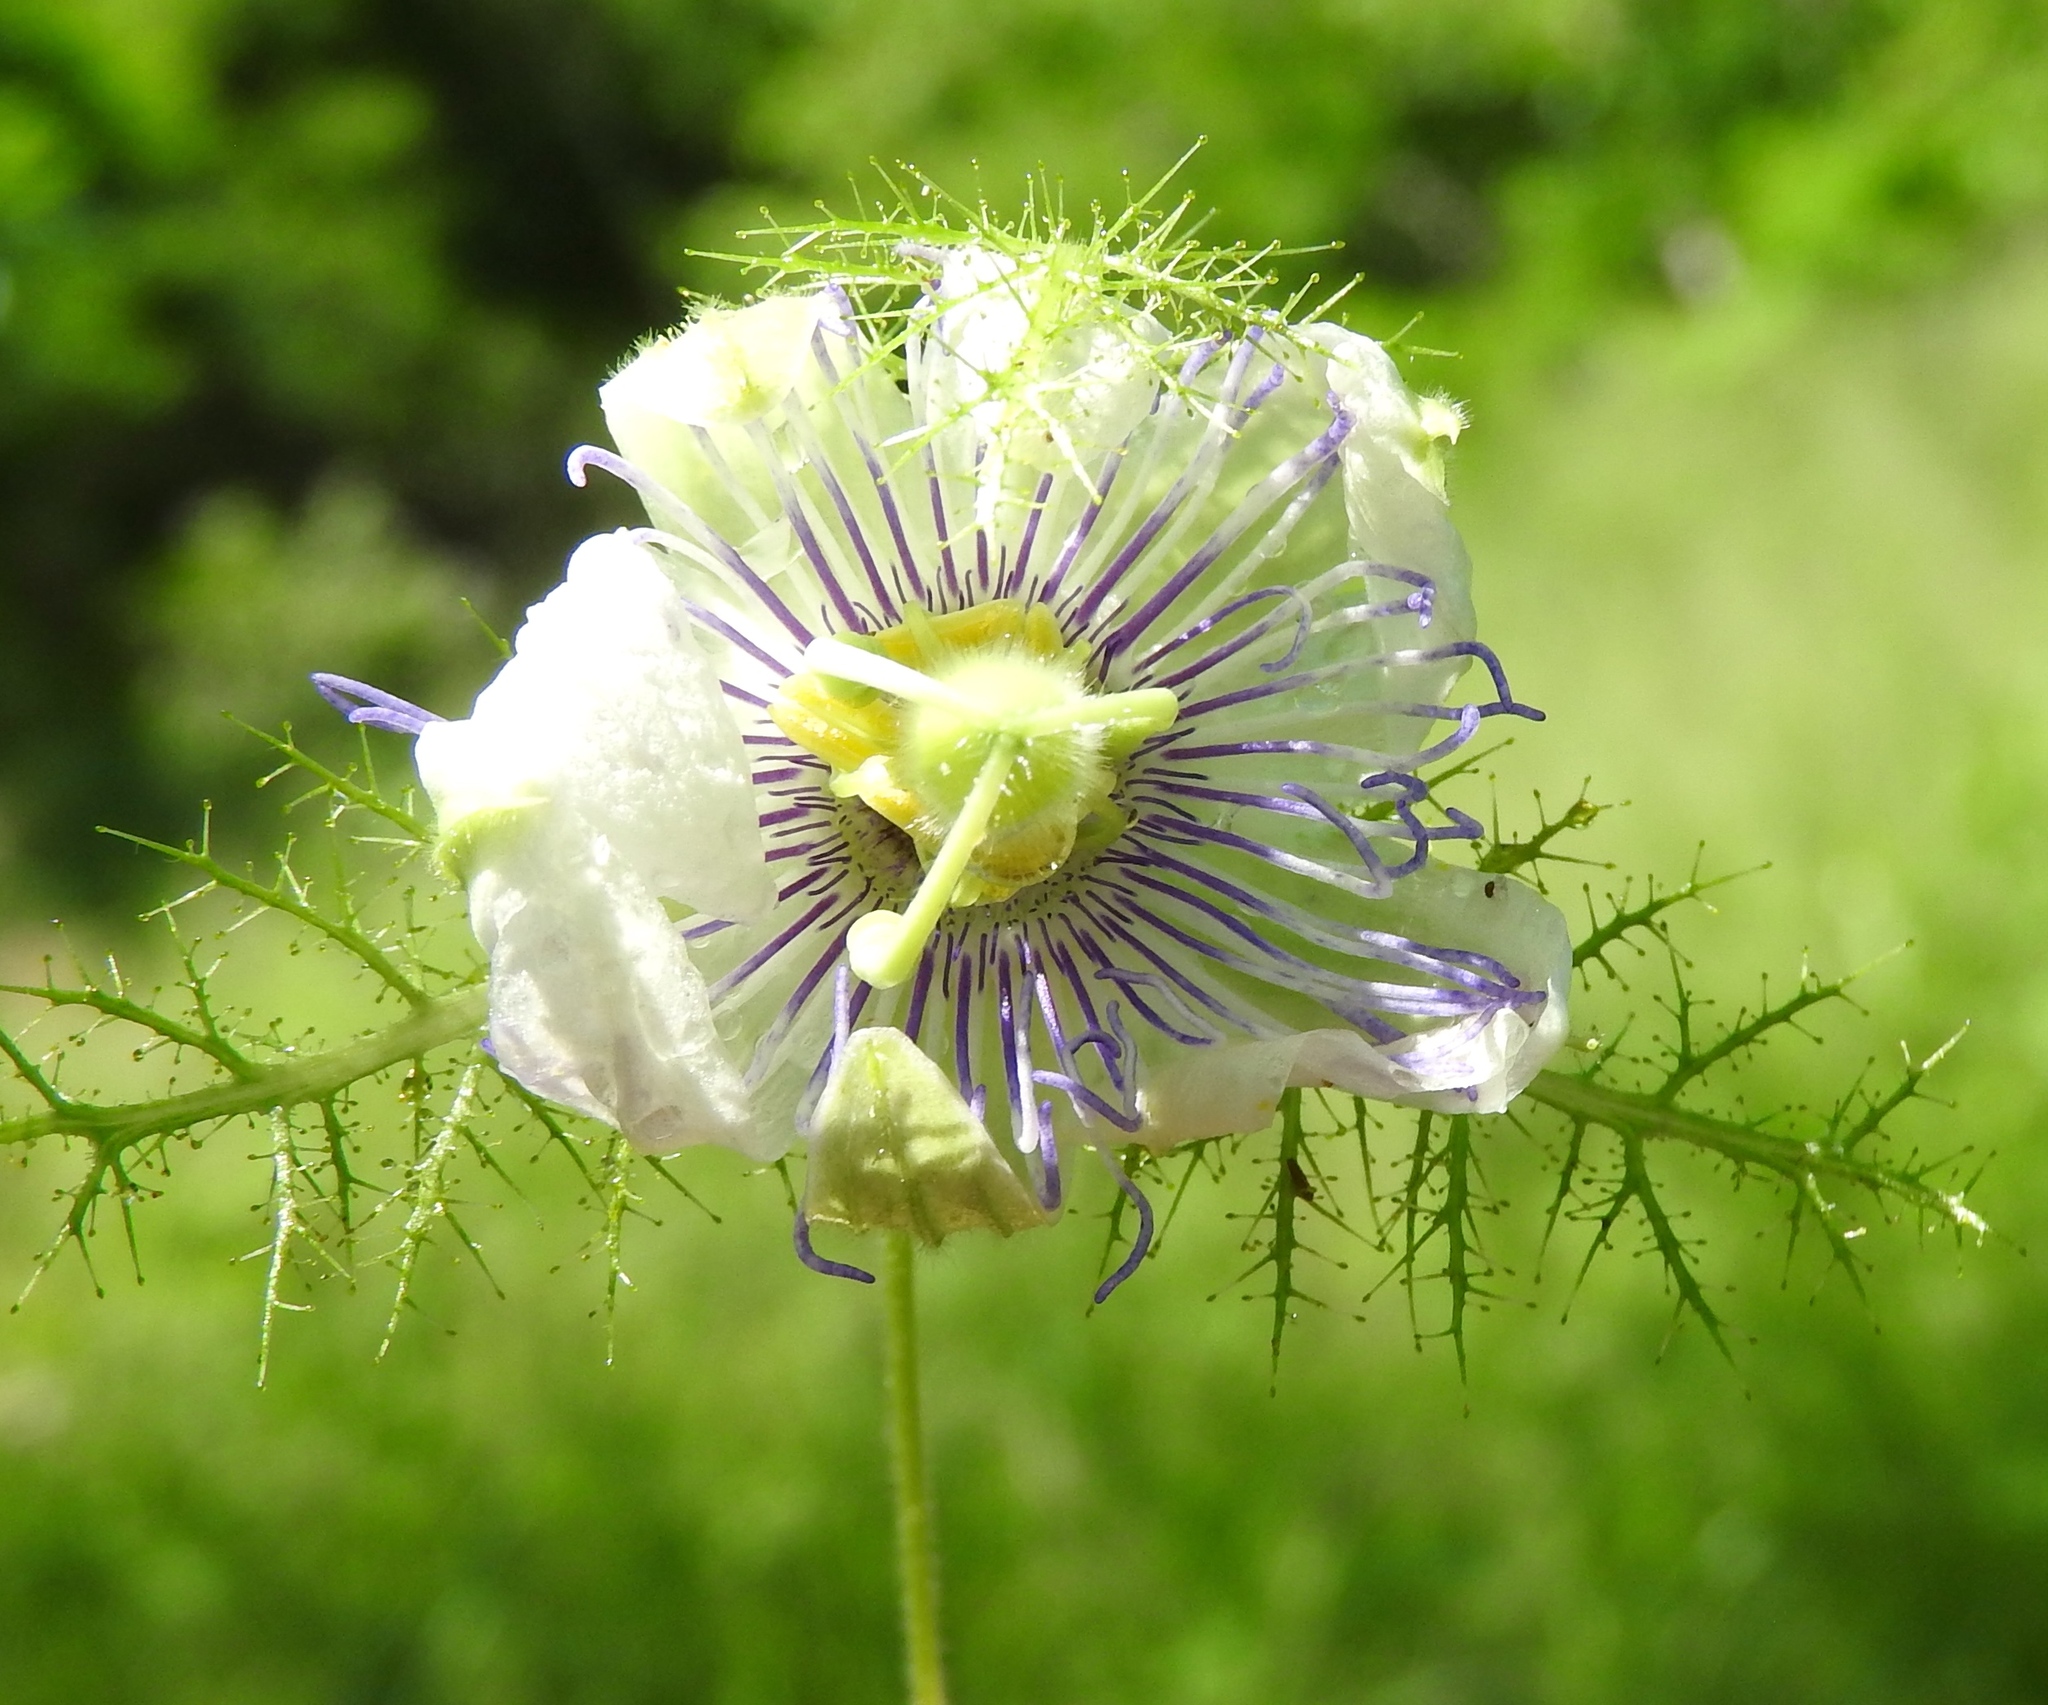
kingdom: Plantae
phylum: Tracheophyta
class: Magnoliopsida
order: Malpighiales
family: Passifloraceae
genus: Passiflora
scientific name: Passiflora foetida
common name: Fetid passionflower
